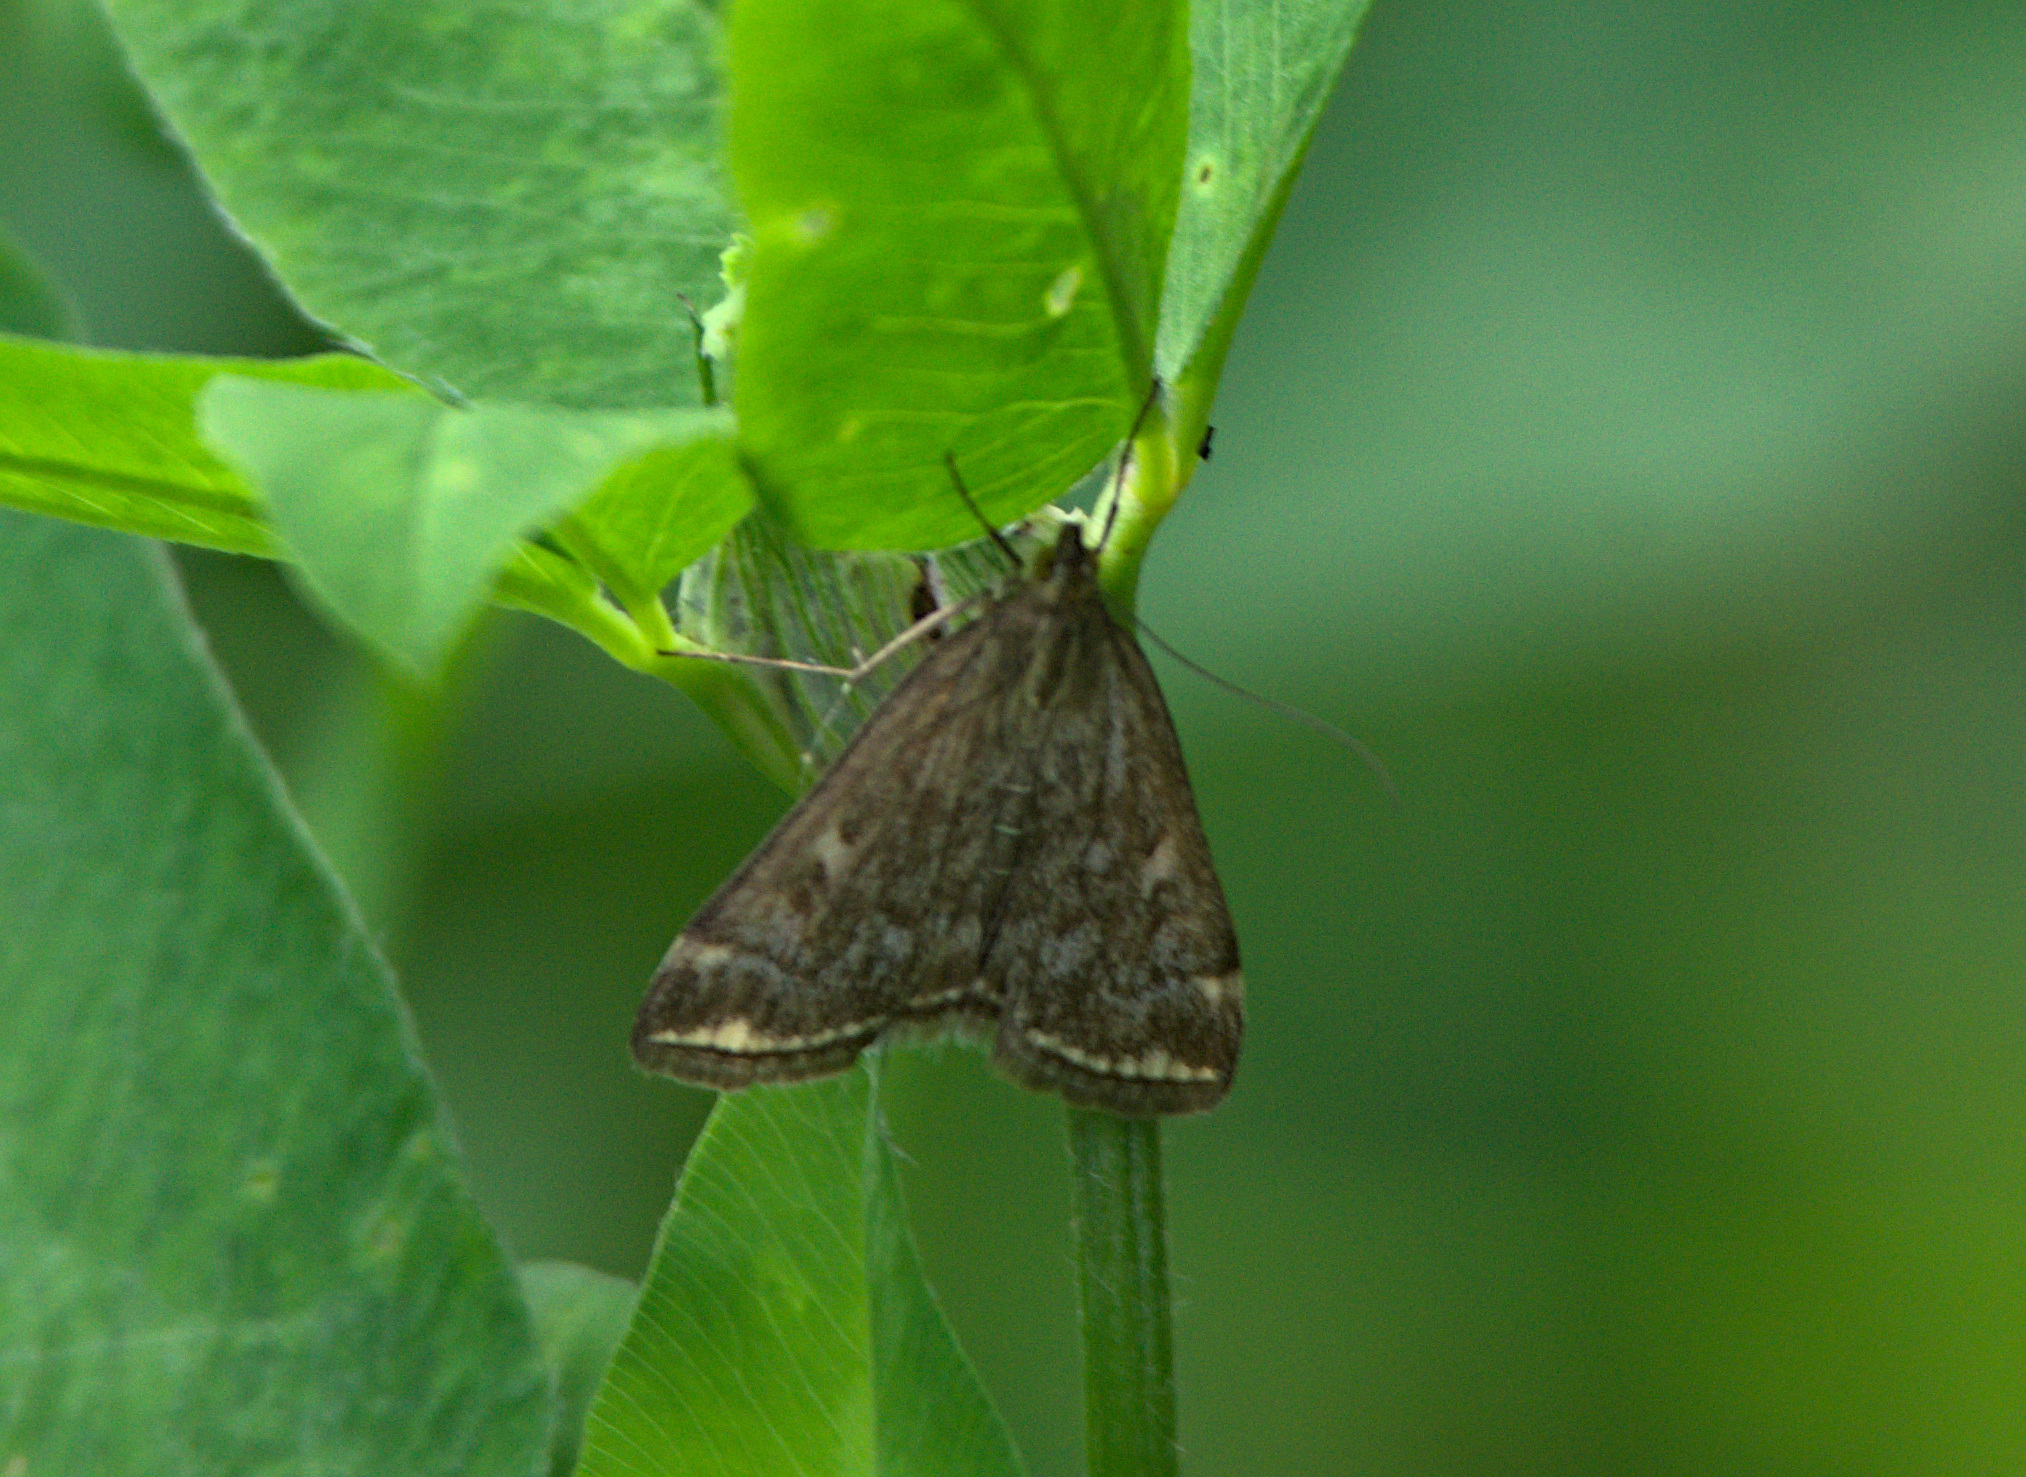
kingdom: Animalia
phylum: Arthropoda
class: Insecta
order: Lepidoptera
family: Crambidae
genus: Loxostege
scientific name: Loxostege sticticalis
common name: Crambid moth
